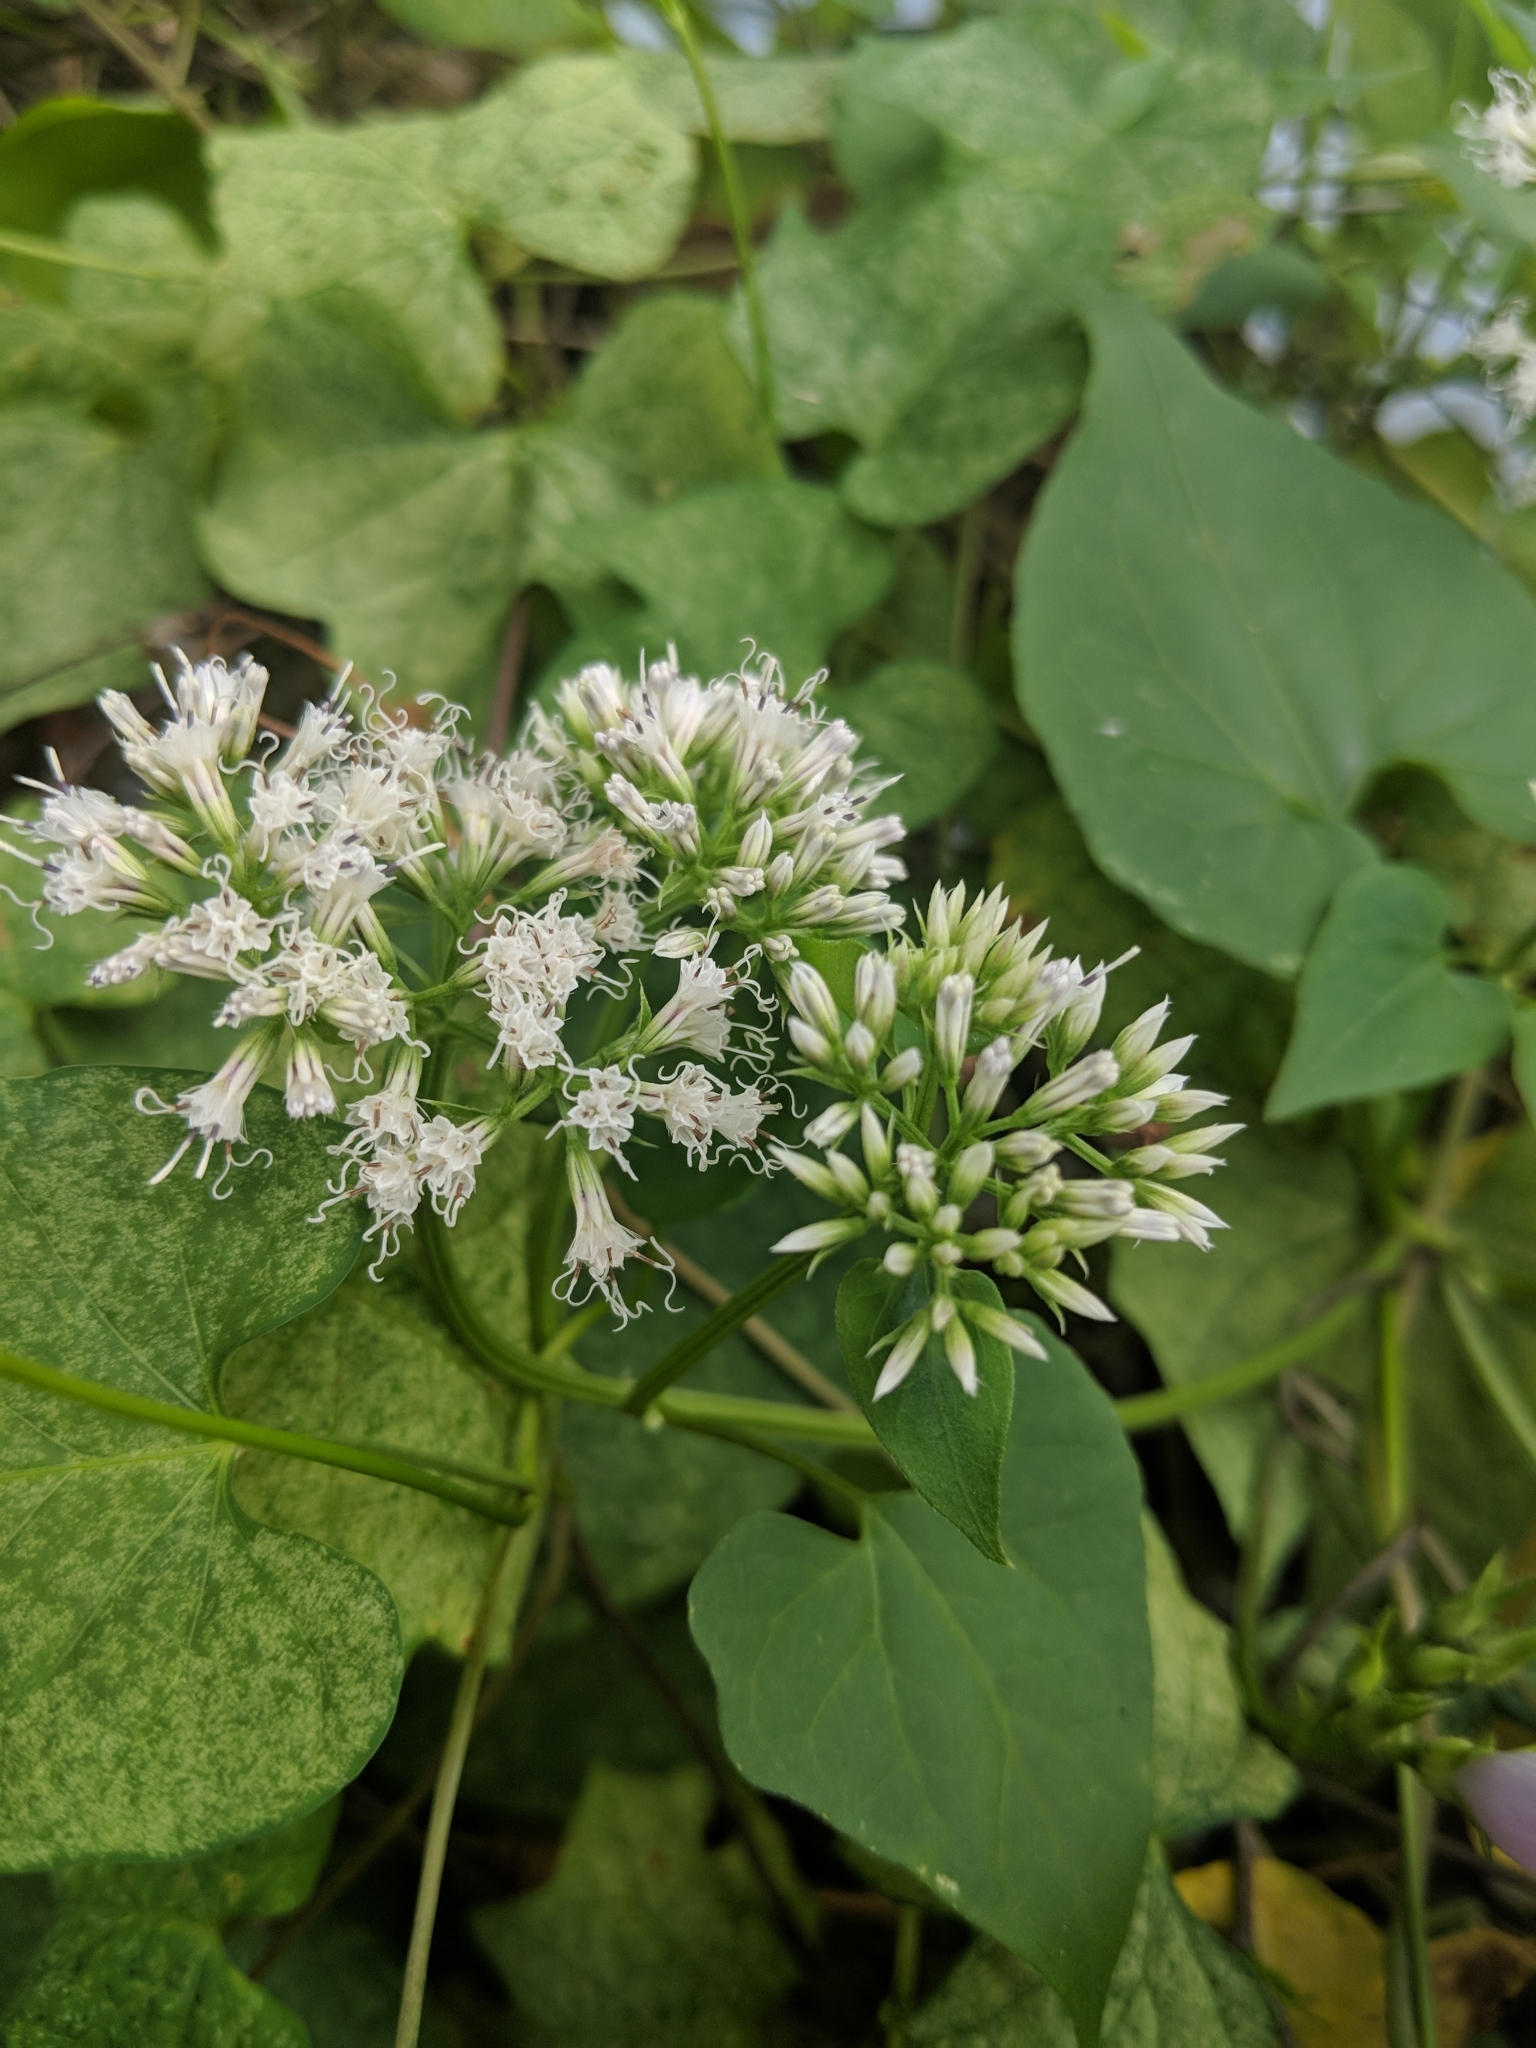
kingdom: Plantae
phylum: Tracheophyta
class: Magnoliopsida
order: Asterales
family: Asteraceae
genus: Mikania
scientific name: Mikania scandens
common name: Climbing hempvine
